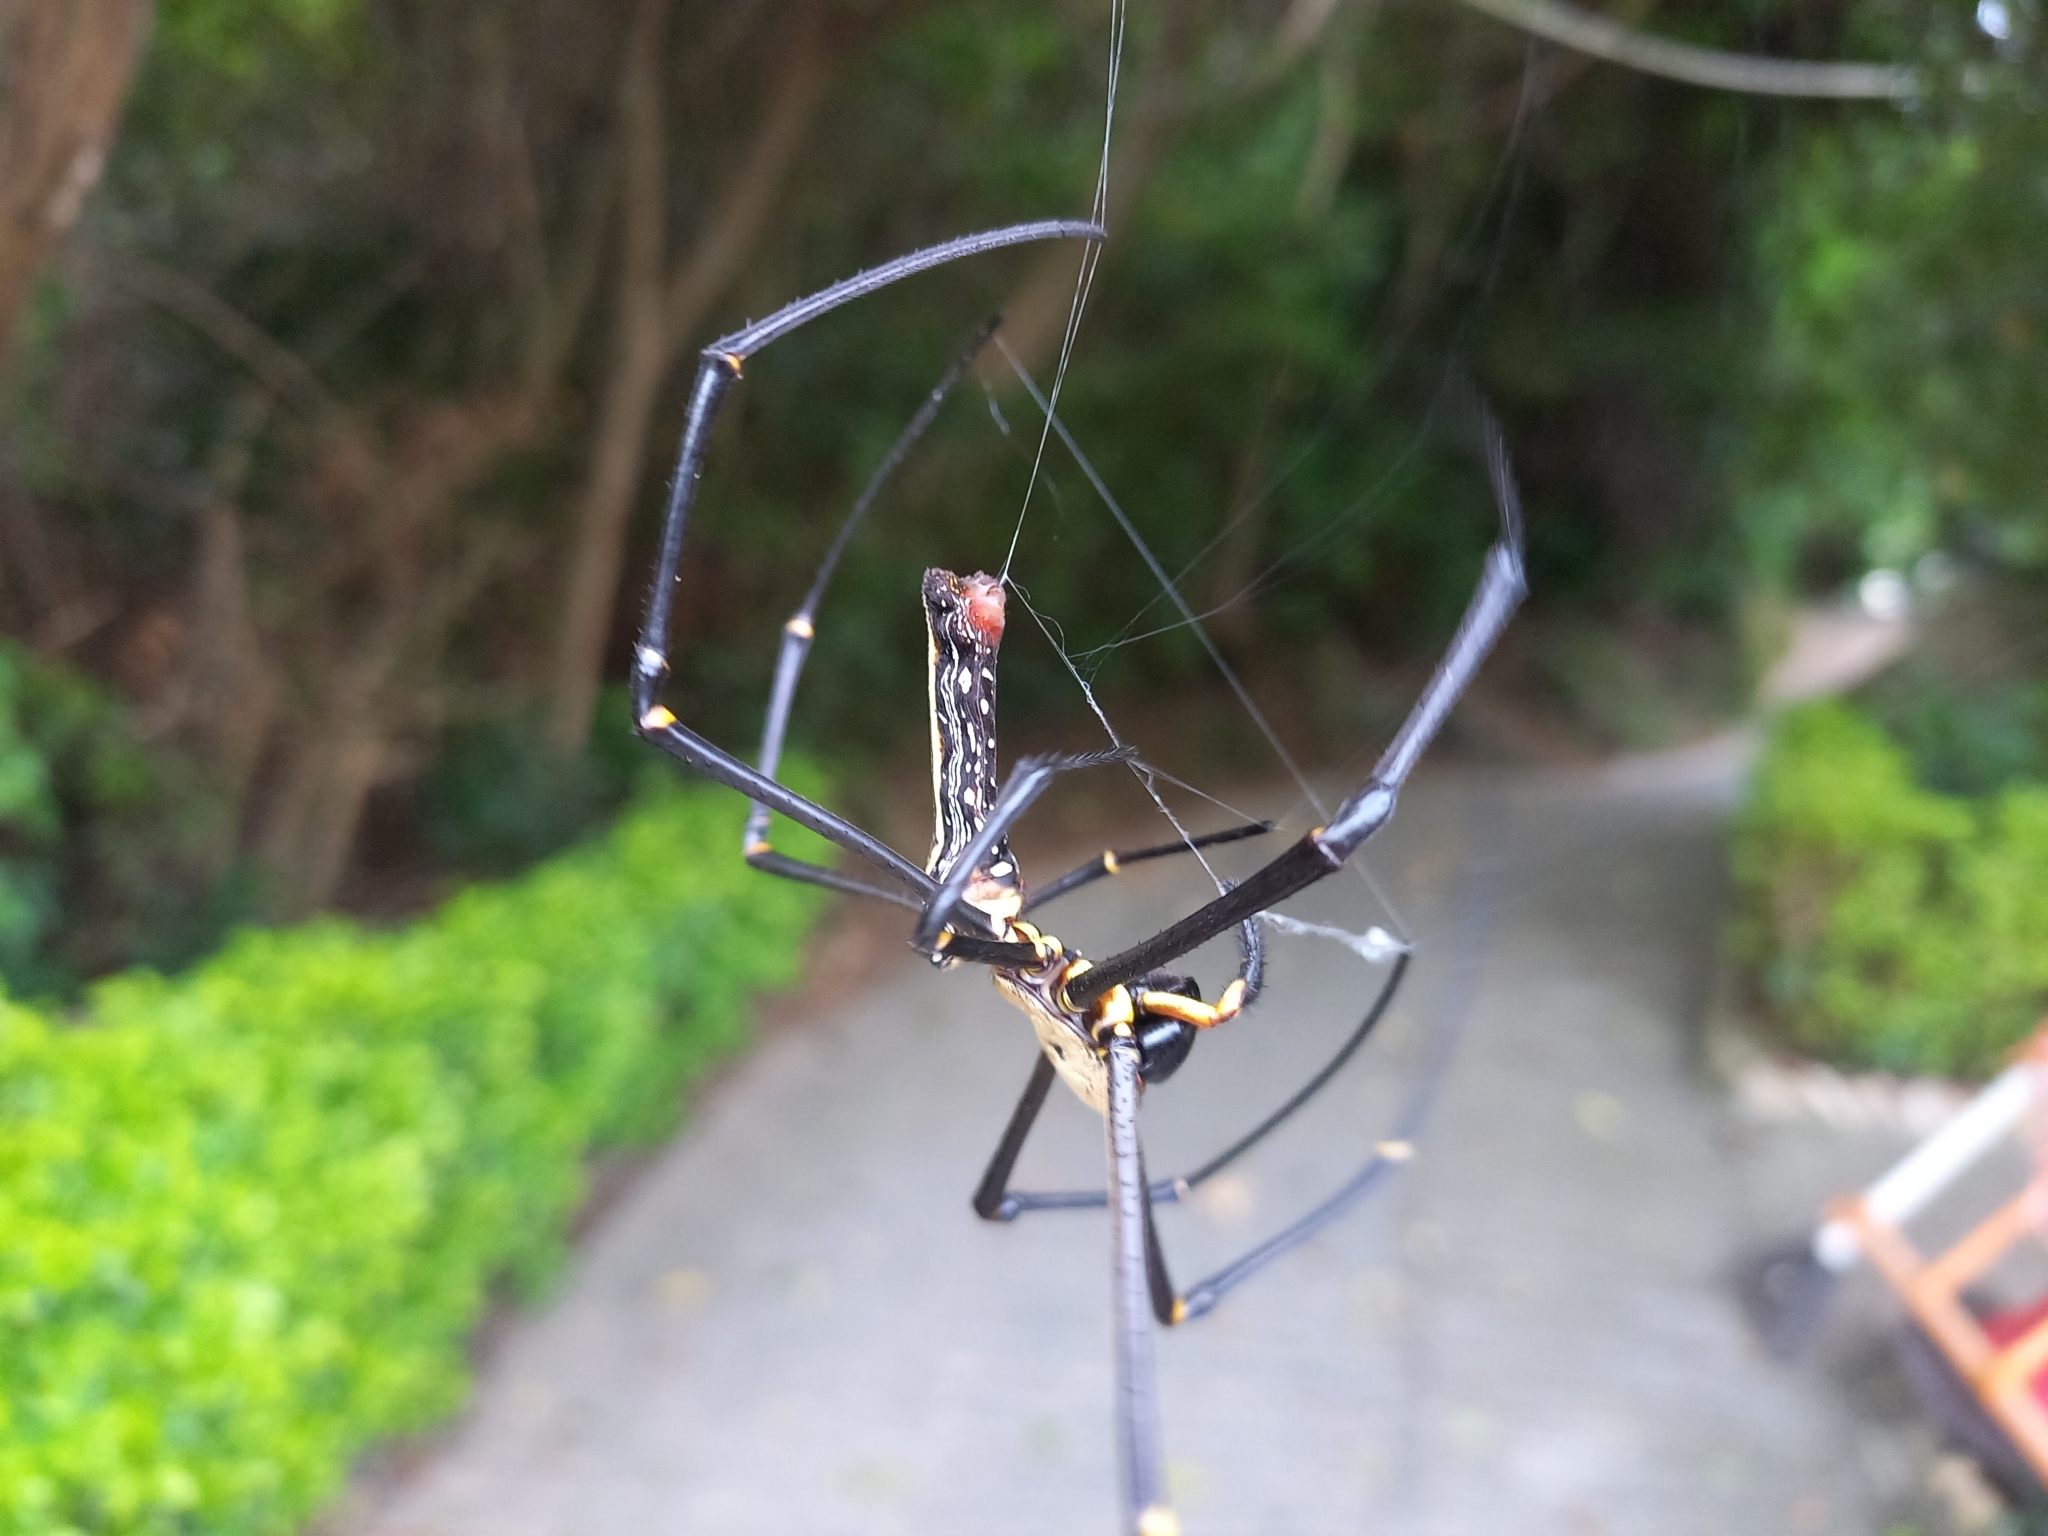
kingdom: Animalia
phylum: Arthropoda
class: Arachnida
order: Araneae
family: Araneidae
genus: Nephila
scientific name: Nephila pilipes
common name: Giant golden orb weaver
